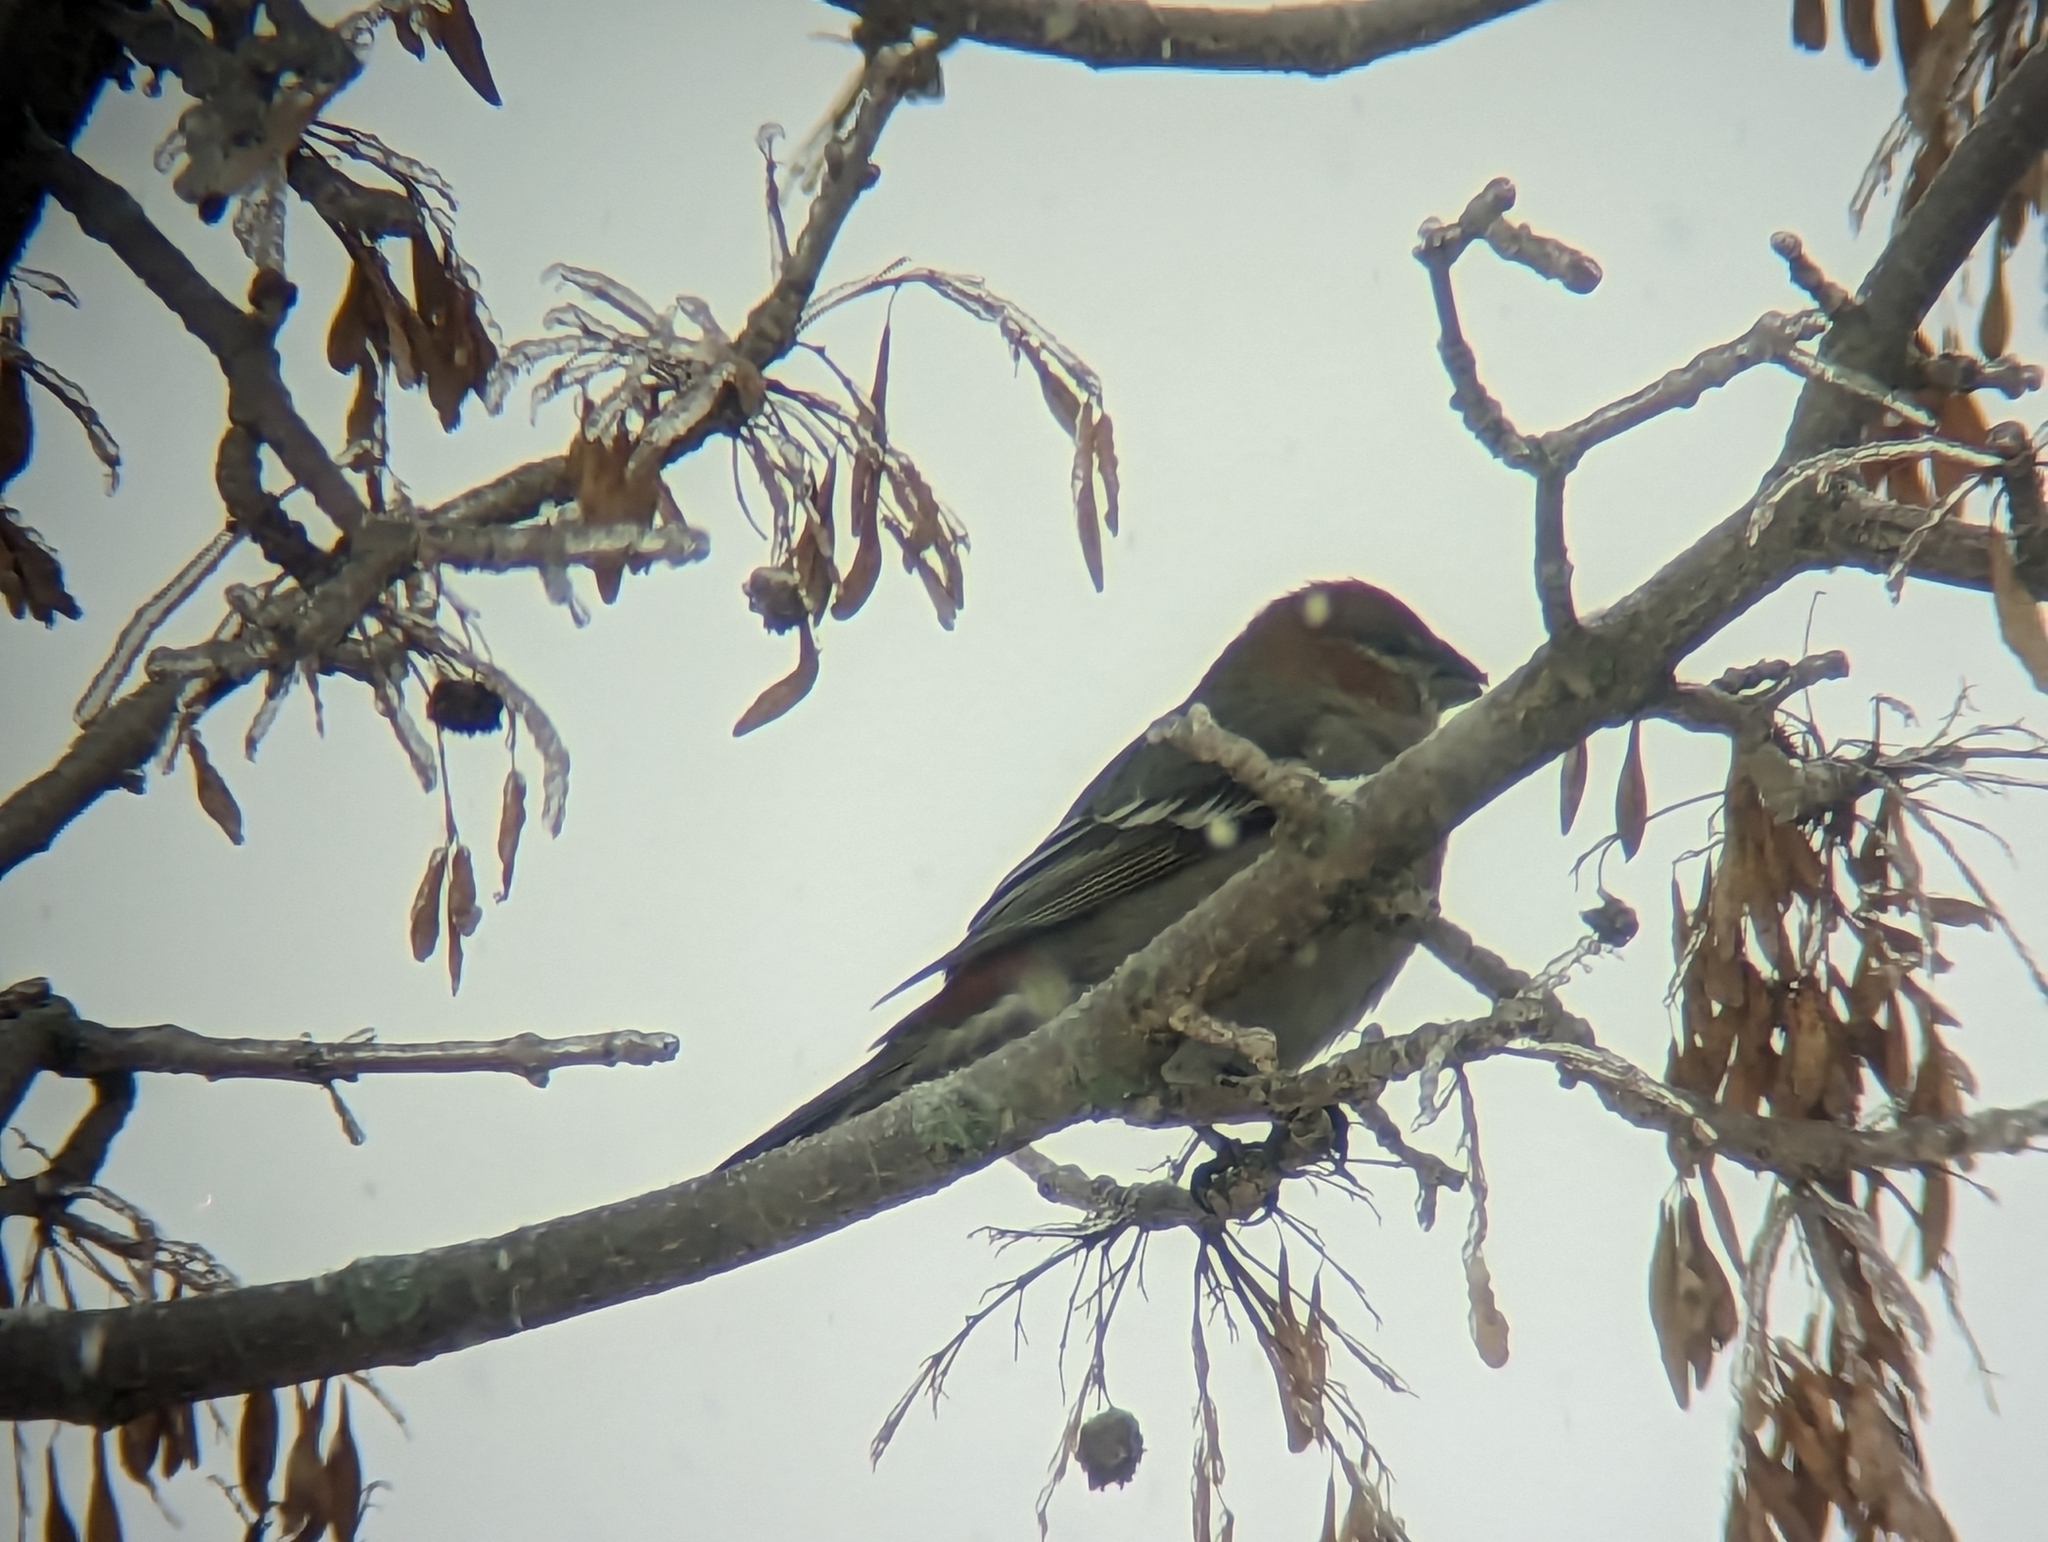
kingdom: Animalia
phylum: Chordata
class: Aves
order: Passeriformes
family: Fringillidae
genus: Pinicola
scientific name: Pinicola enucleator
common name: Pine grosbeak
